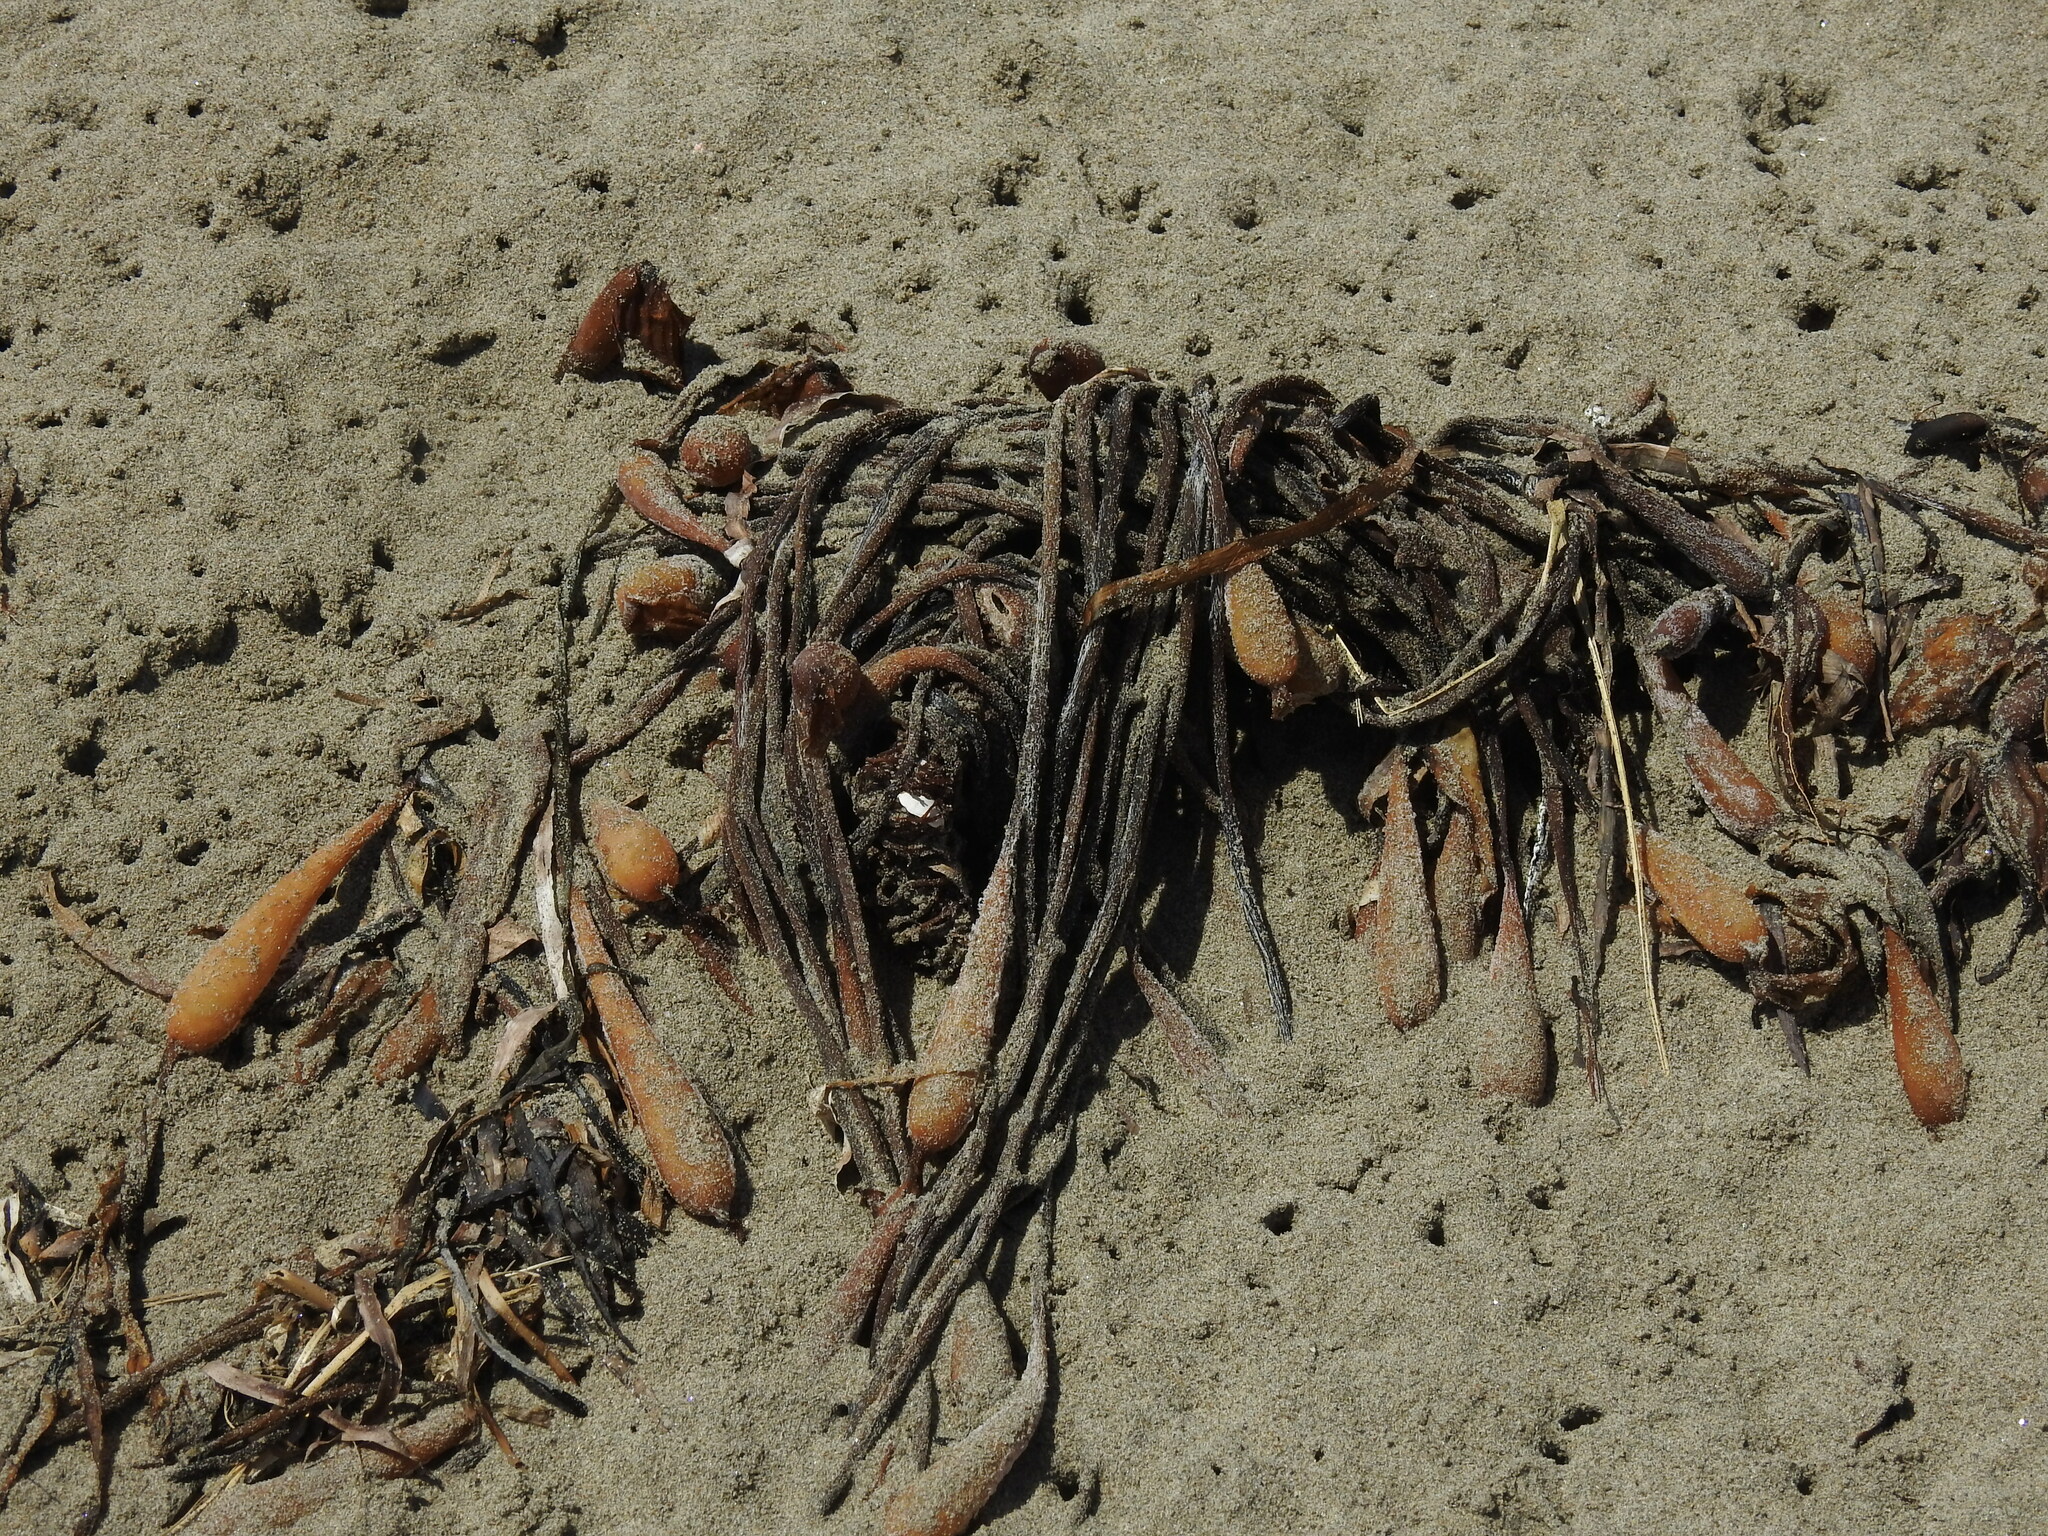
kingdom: Chromista
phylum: Ochrophyta
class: Phaeophyceae
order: Laminariales
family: Laminariaceae
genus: Macrocystis
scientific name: Macrocystis pyrifera
